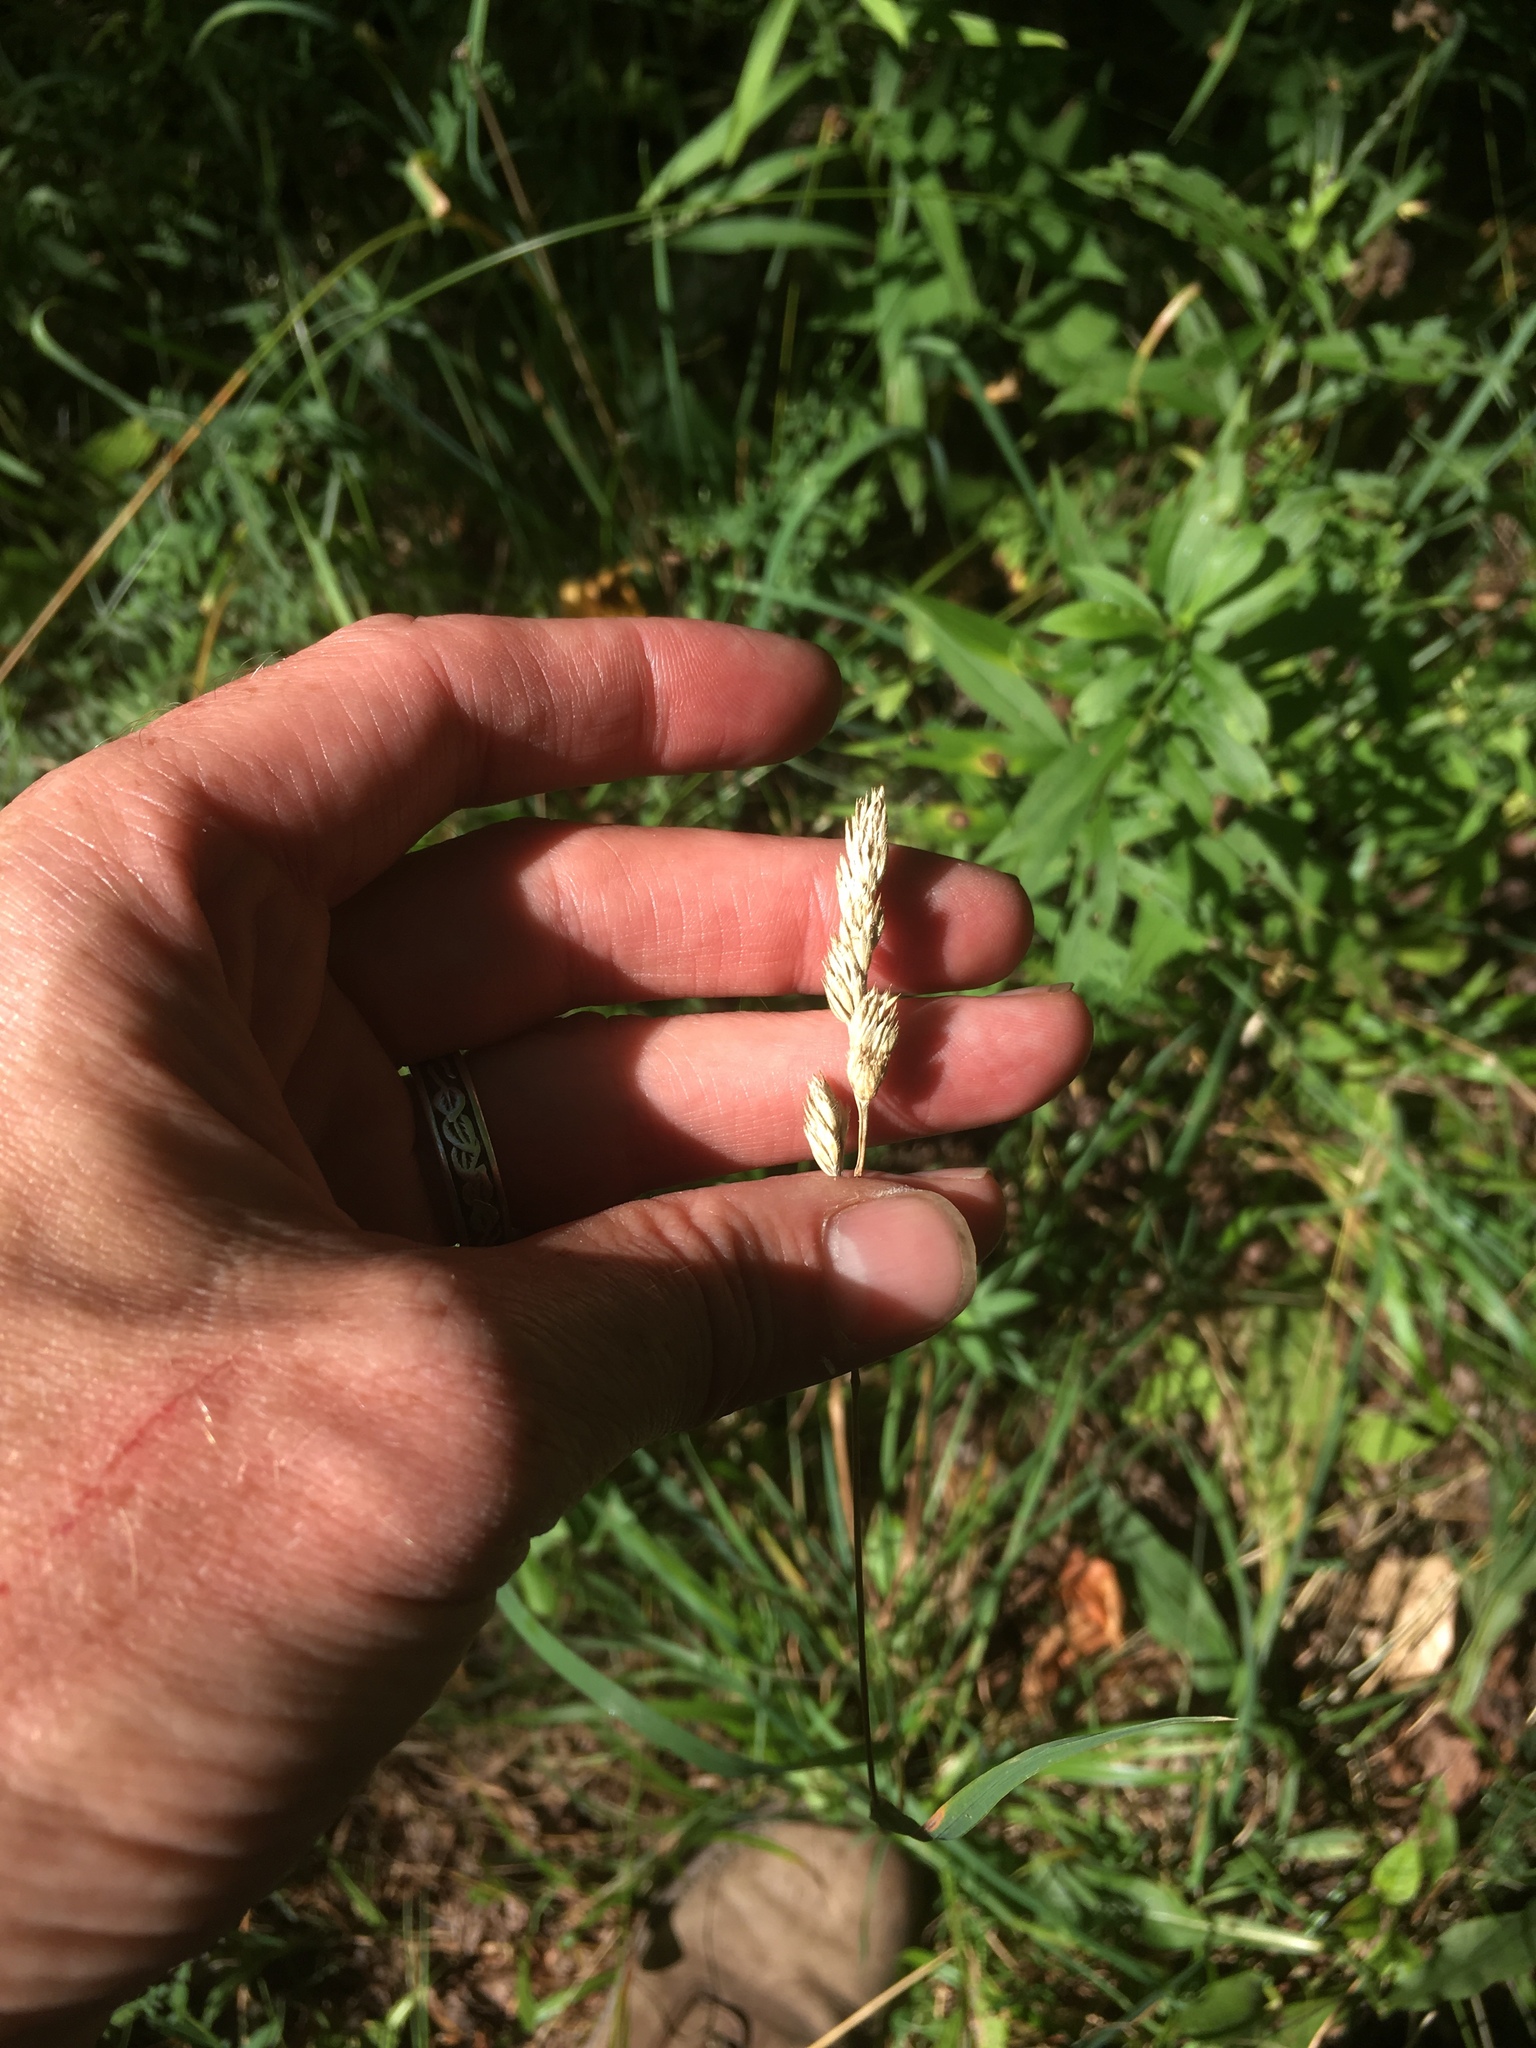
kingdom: Plantae
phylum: Tracheophyta
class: Liliopsida
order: Poales
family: Poaceae
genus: Dactylis
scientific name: Dactylis glomerata
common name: Orchardgrass
